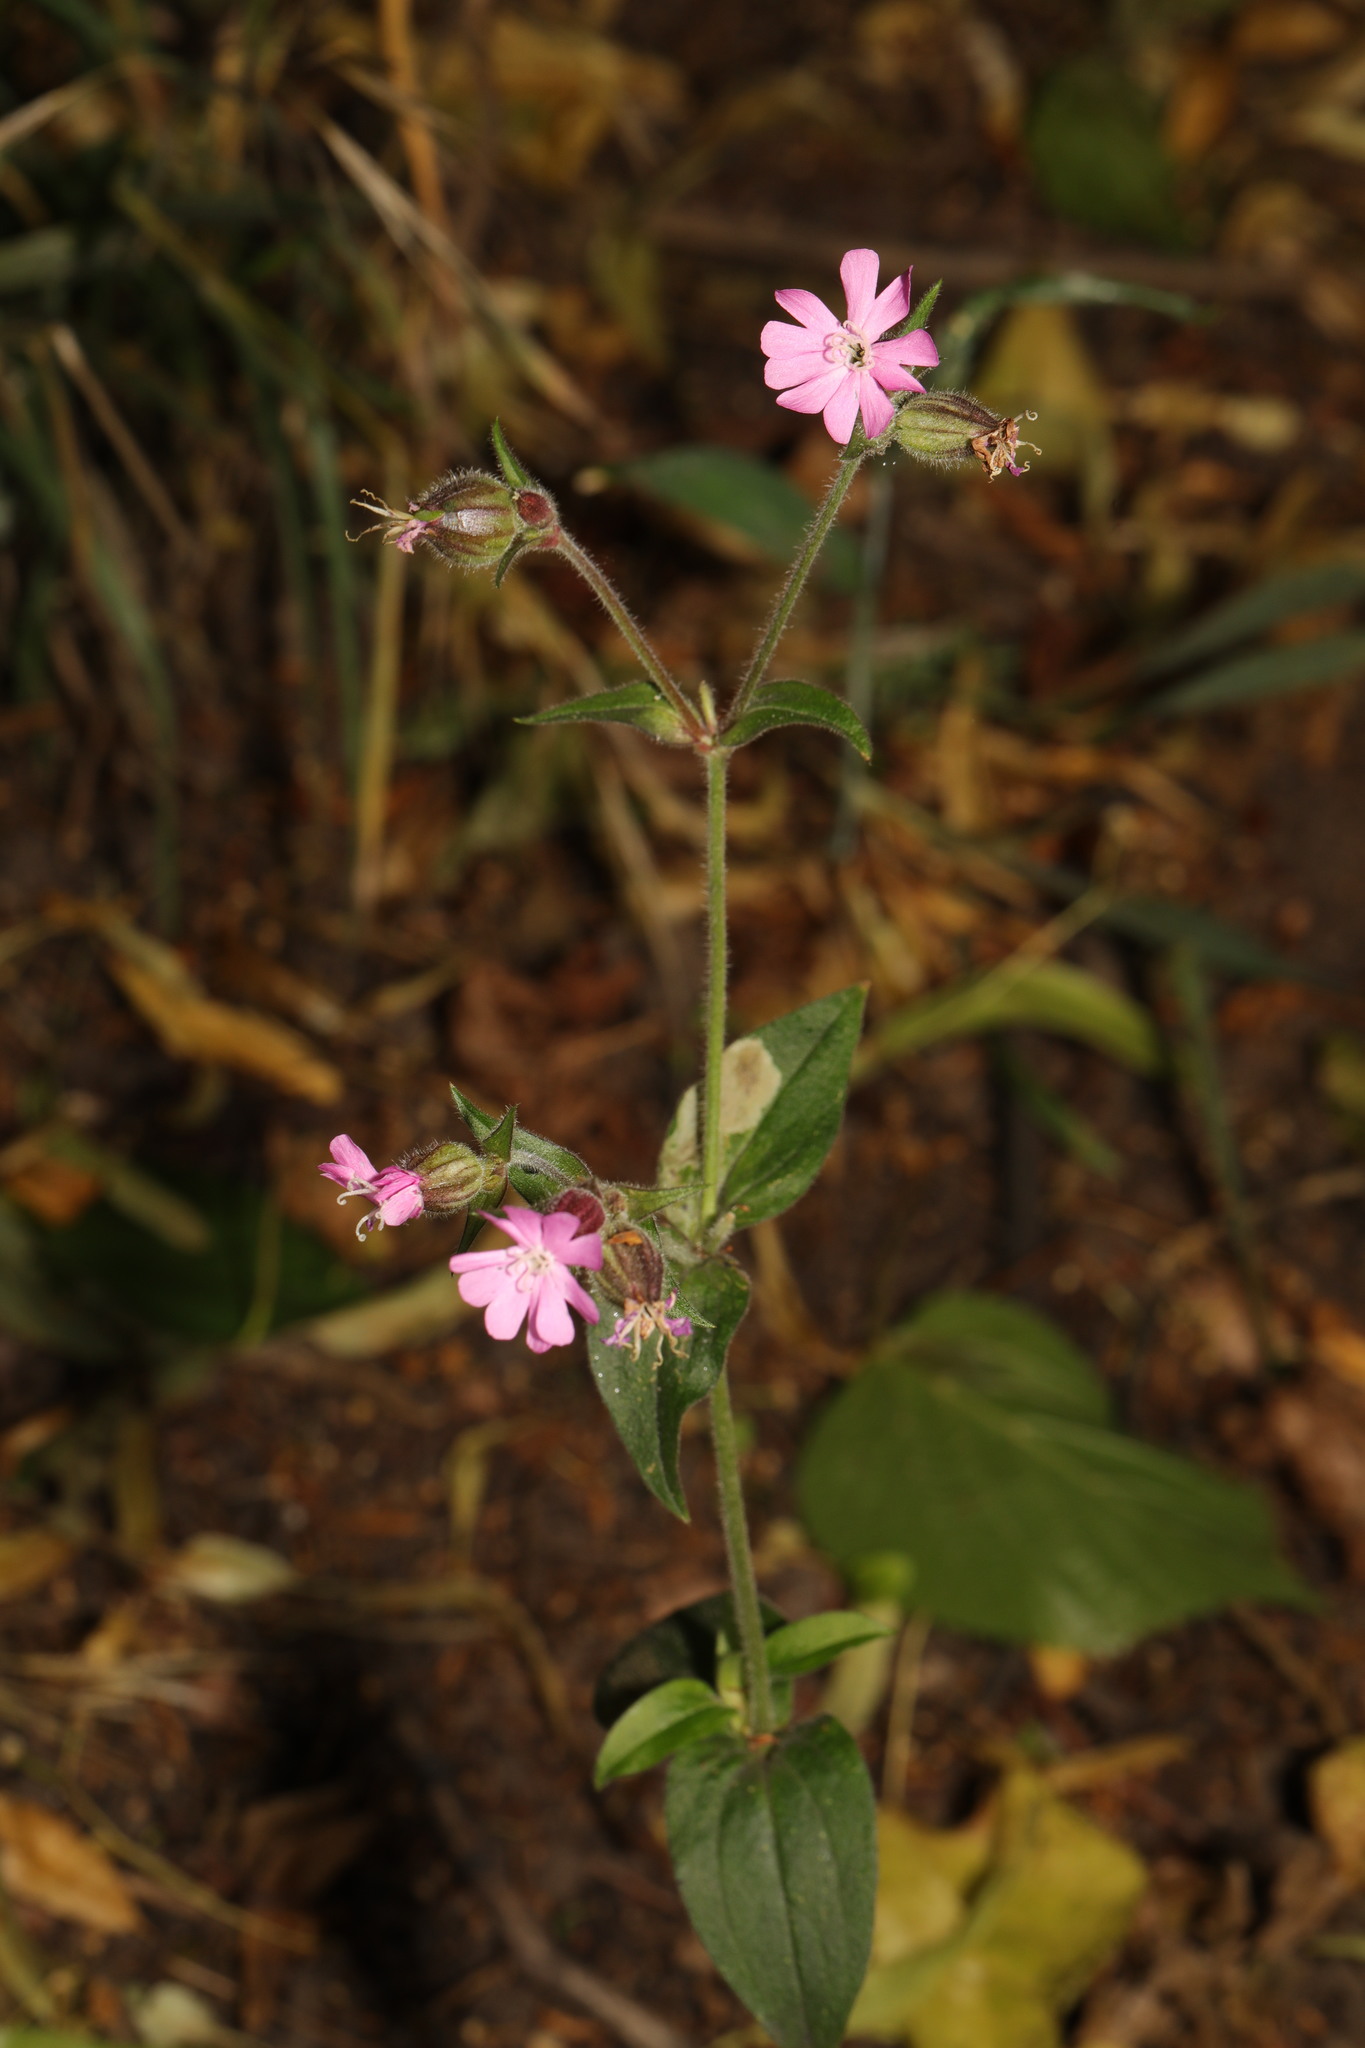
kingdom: Plantae
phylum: Tracheophyta
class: Magnoliopsida
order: Caryophyllales
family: Caryophyllaceae
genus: Silene
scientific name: Silene dioica
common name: Red campion
